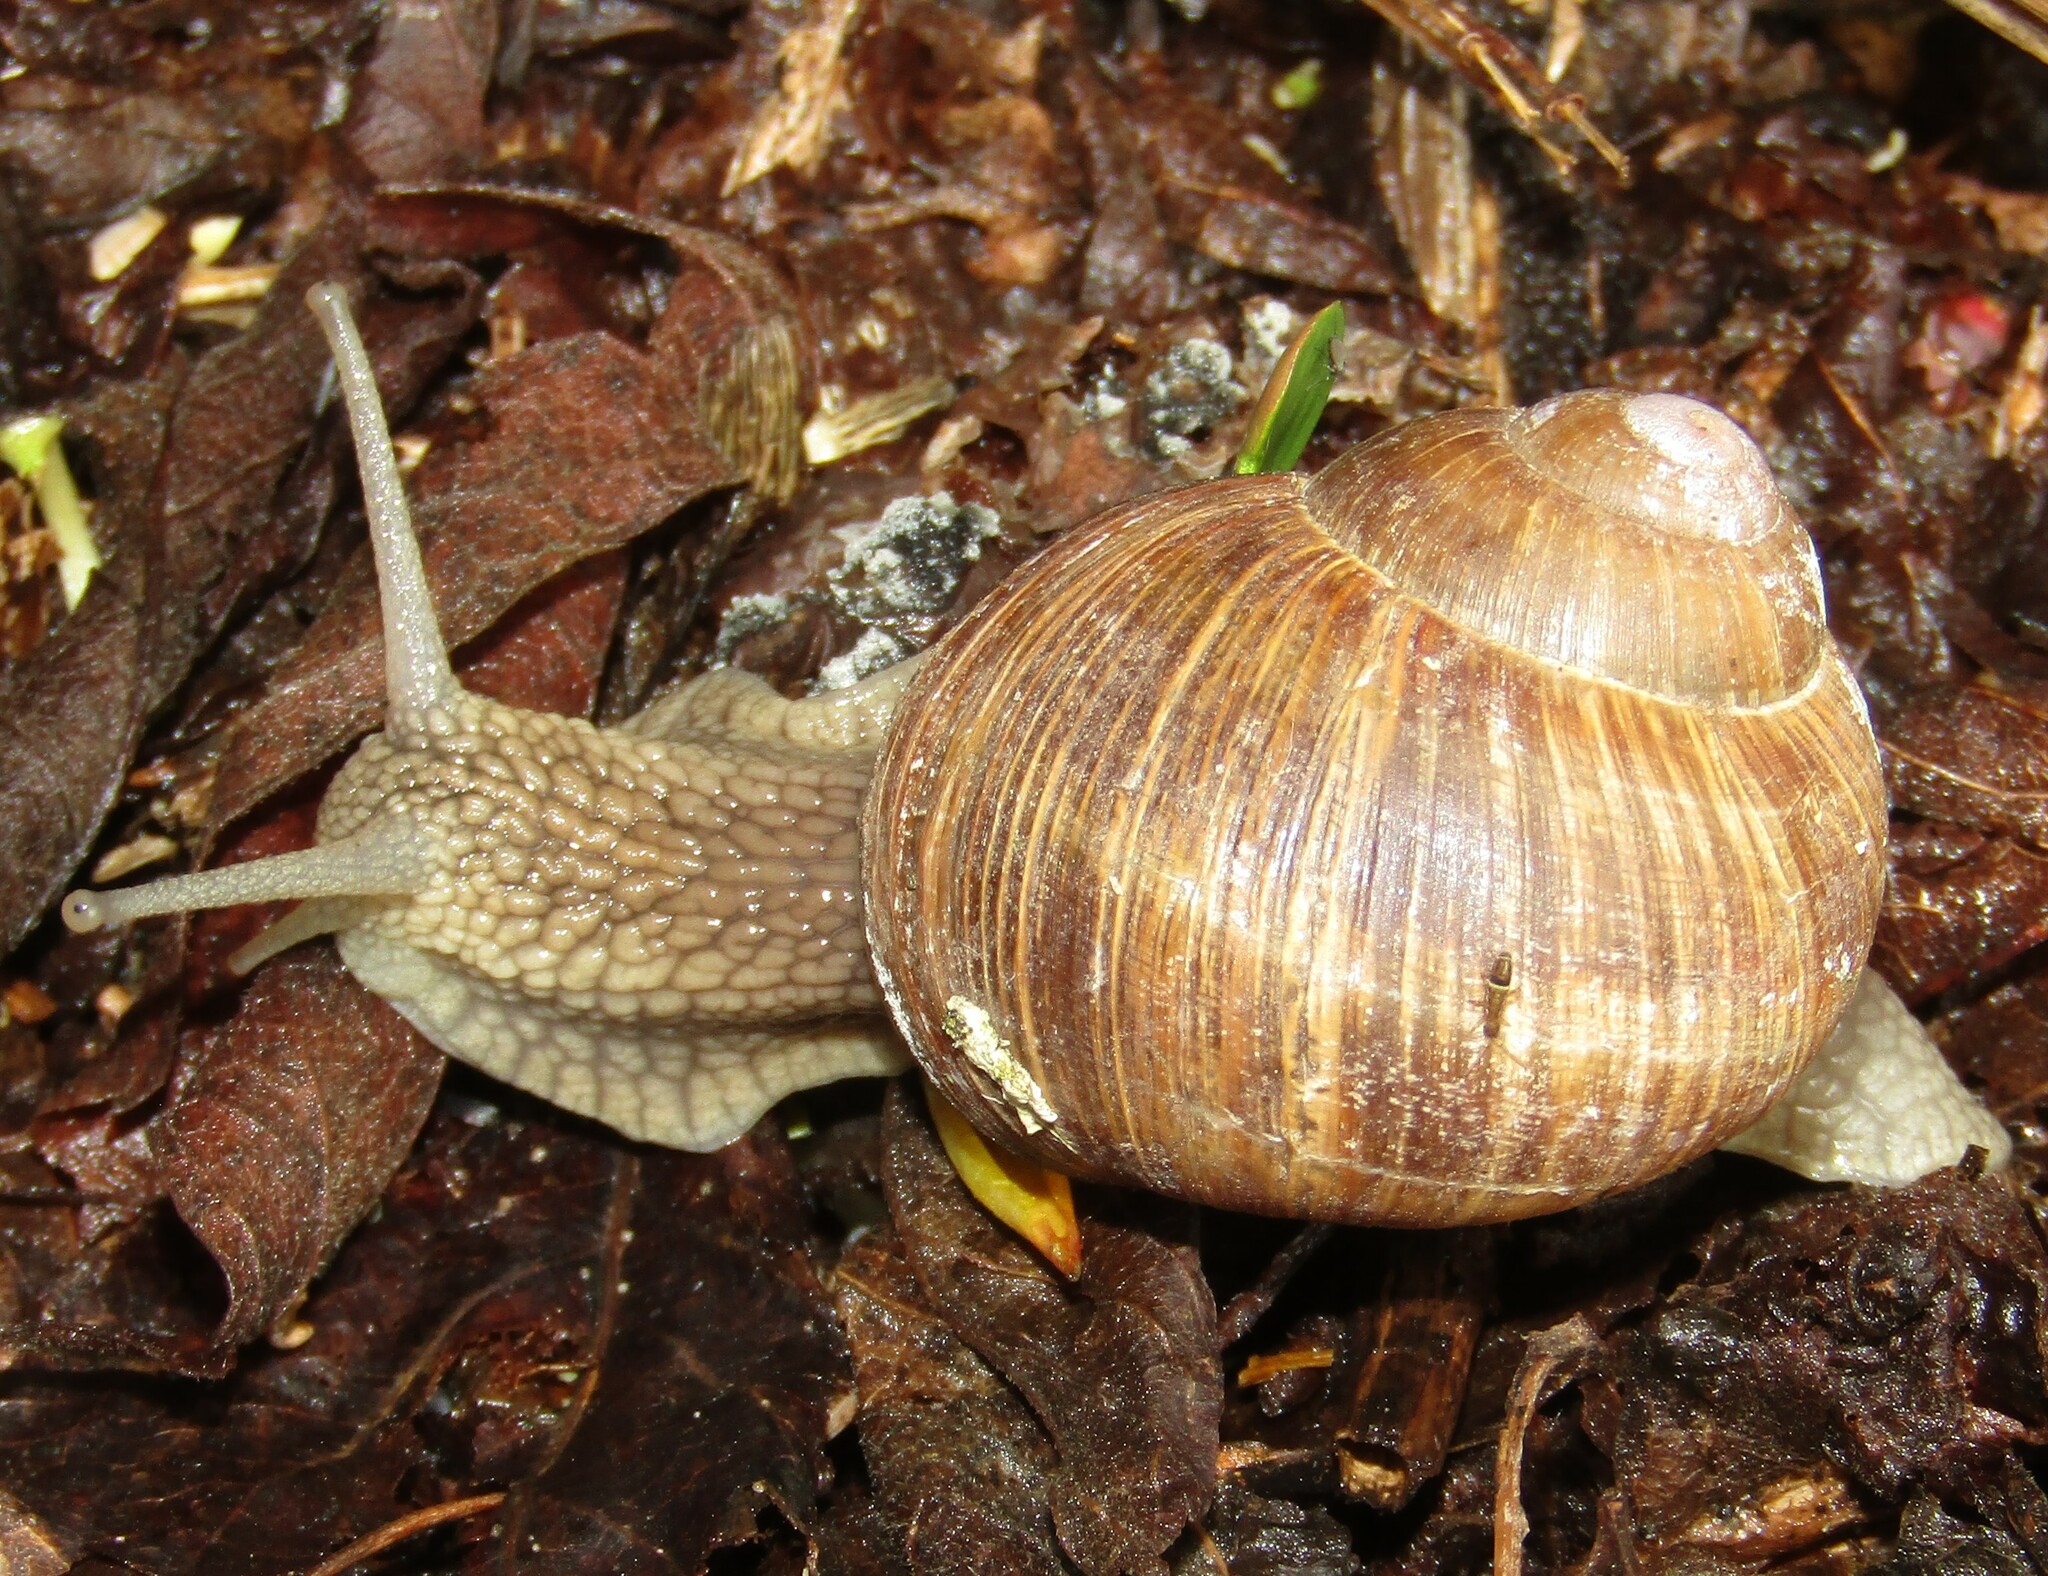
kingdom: Animalia
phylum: Mollusca
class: Gastropoda
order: Stylommatophora
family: Helicidae
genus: Helix
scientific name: Helix pomatia
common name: Roman snail
